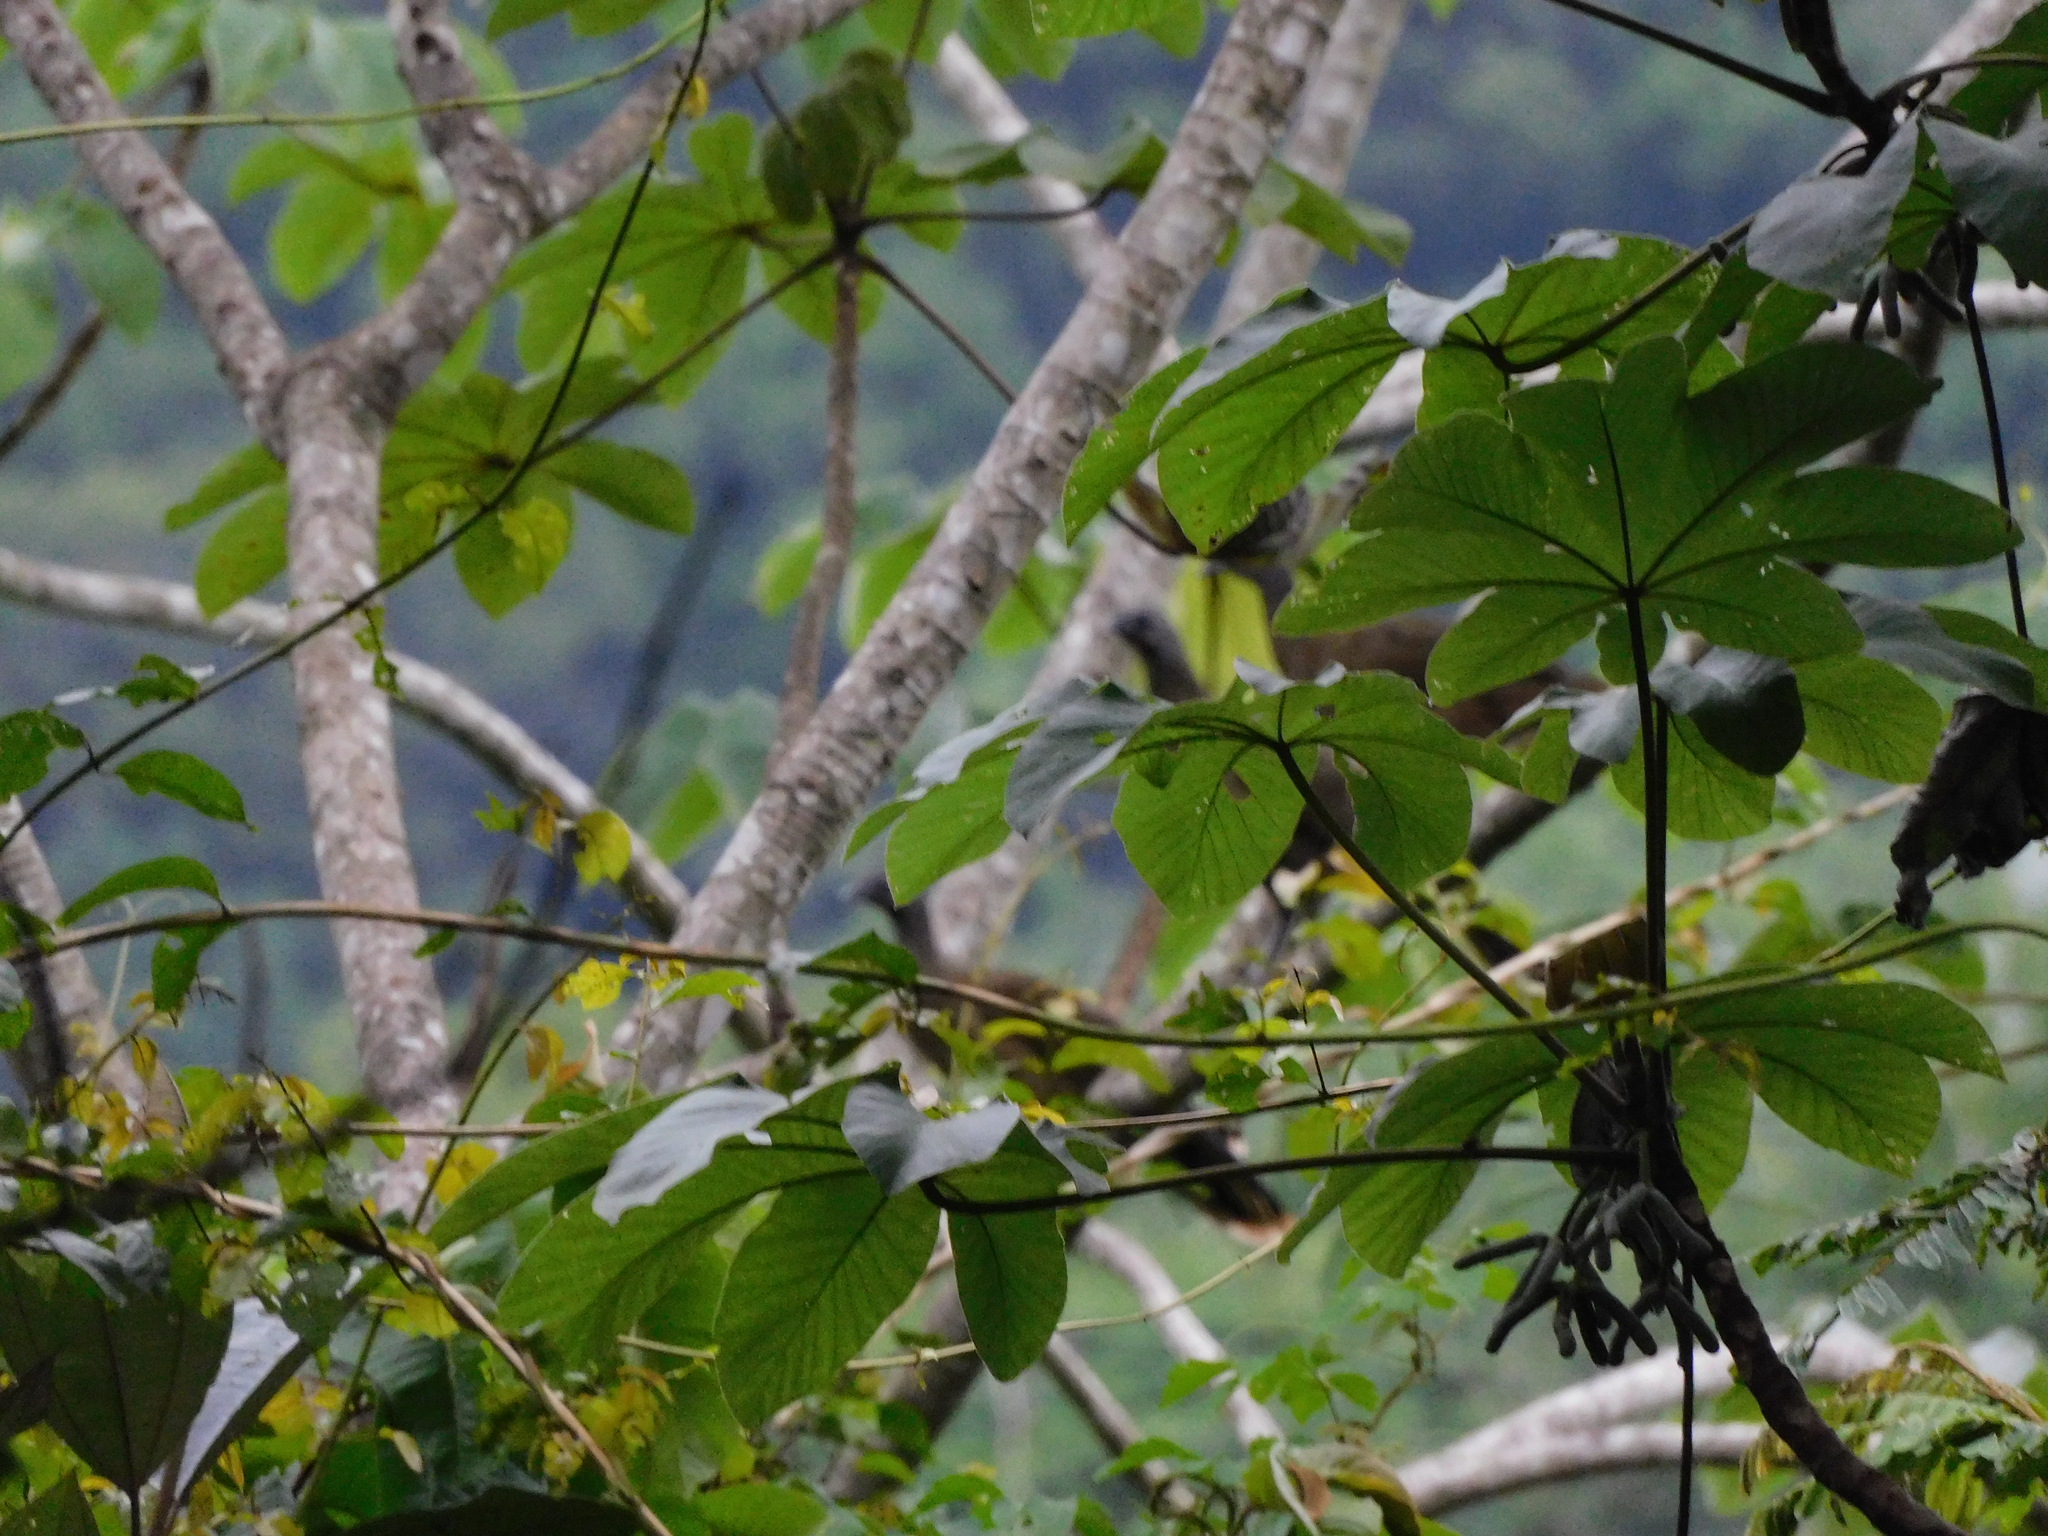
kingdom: Animalia
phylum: Chordata
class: Aves
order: Galliformes
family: Cracidae
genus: Ortalis
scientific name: Ortalis vetula
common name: Plain chachalaca
